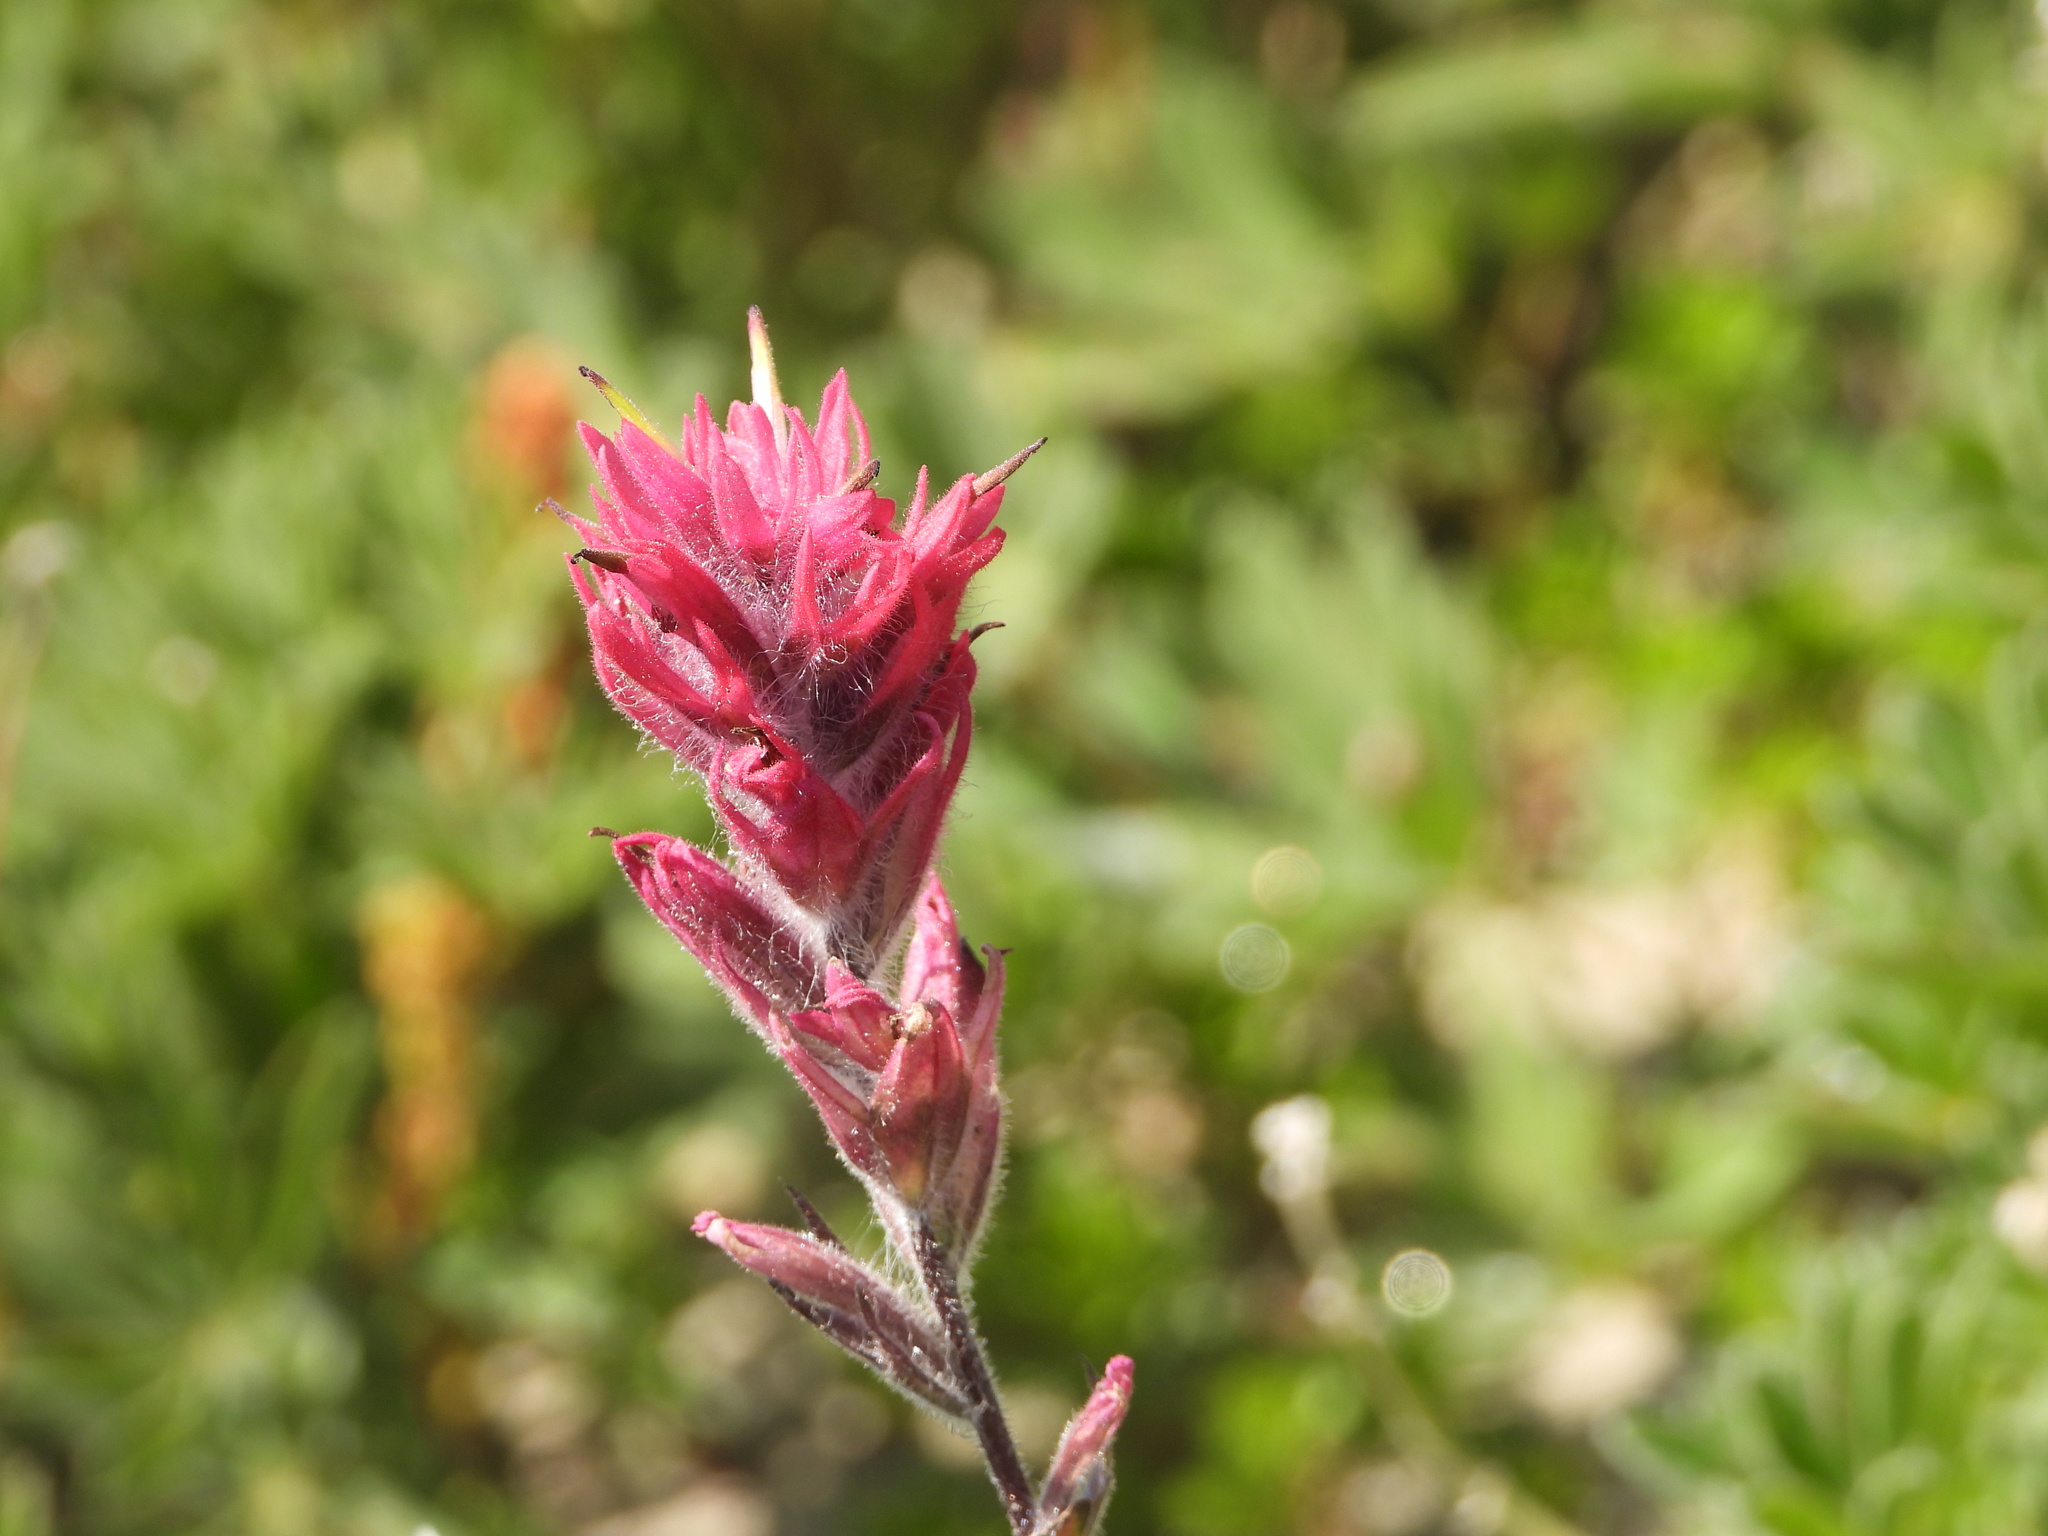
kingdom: Plantae
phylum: Tracheophyta
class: Magnoliopsida
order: Lamiales
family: Orobanchaceae
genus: Castilleja
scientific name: Castilleja parviflora
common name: Mountain paintbrush
